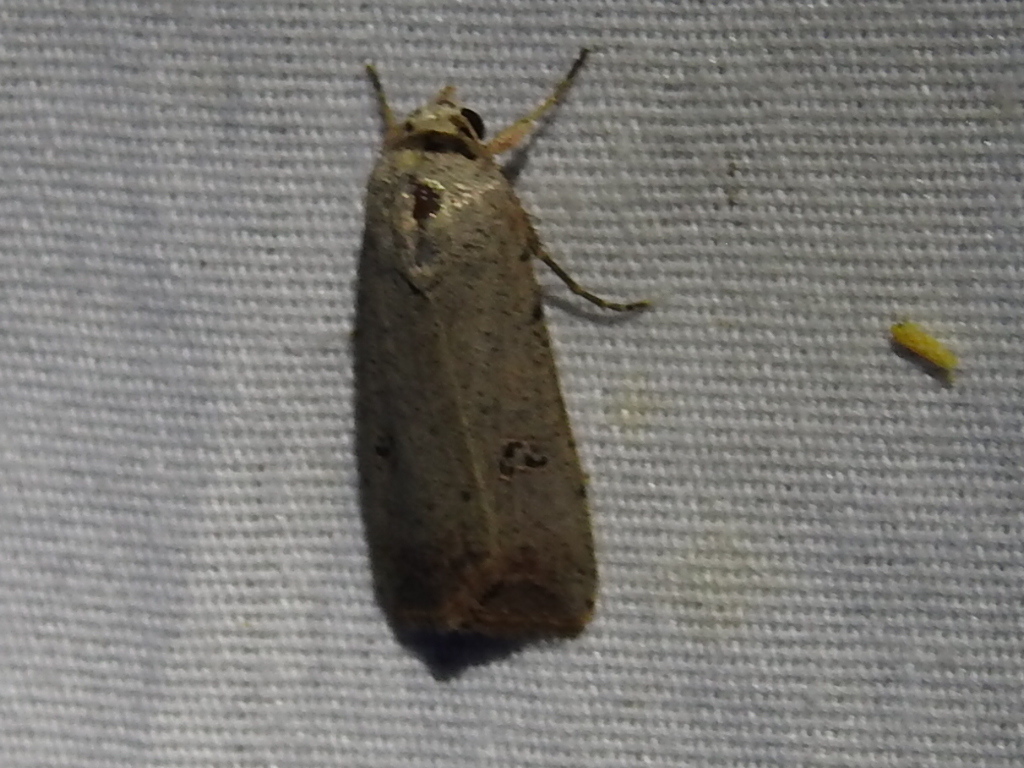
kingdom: Animalia
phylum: Arthropoda
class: Insecta
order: Lepidoptera
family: Noctuidae
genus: Anicla
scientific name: Anicla infecta
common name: Green cutworm
